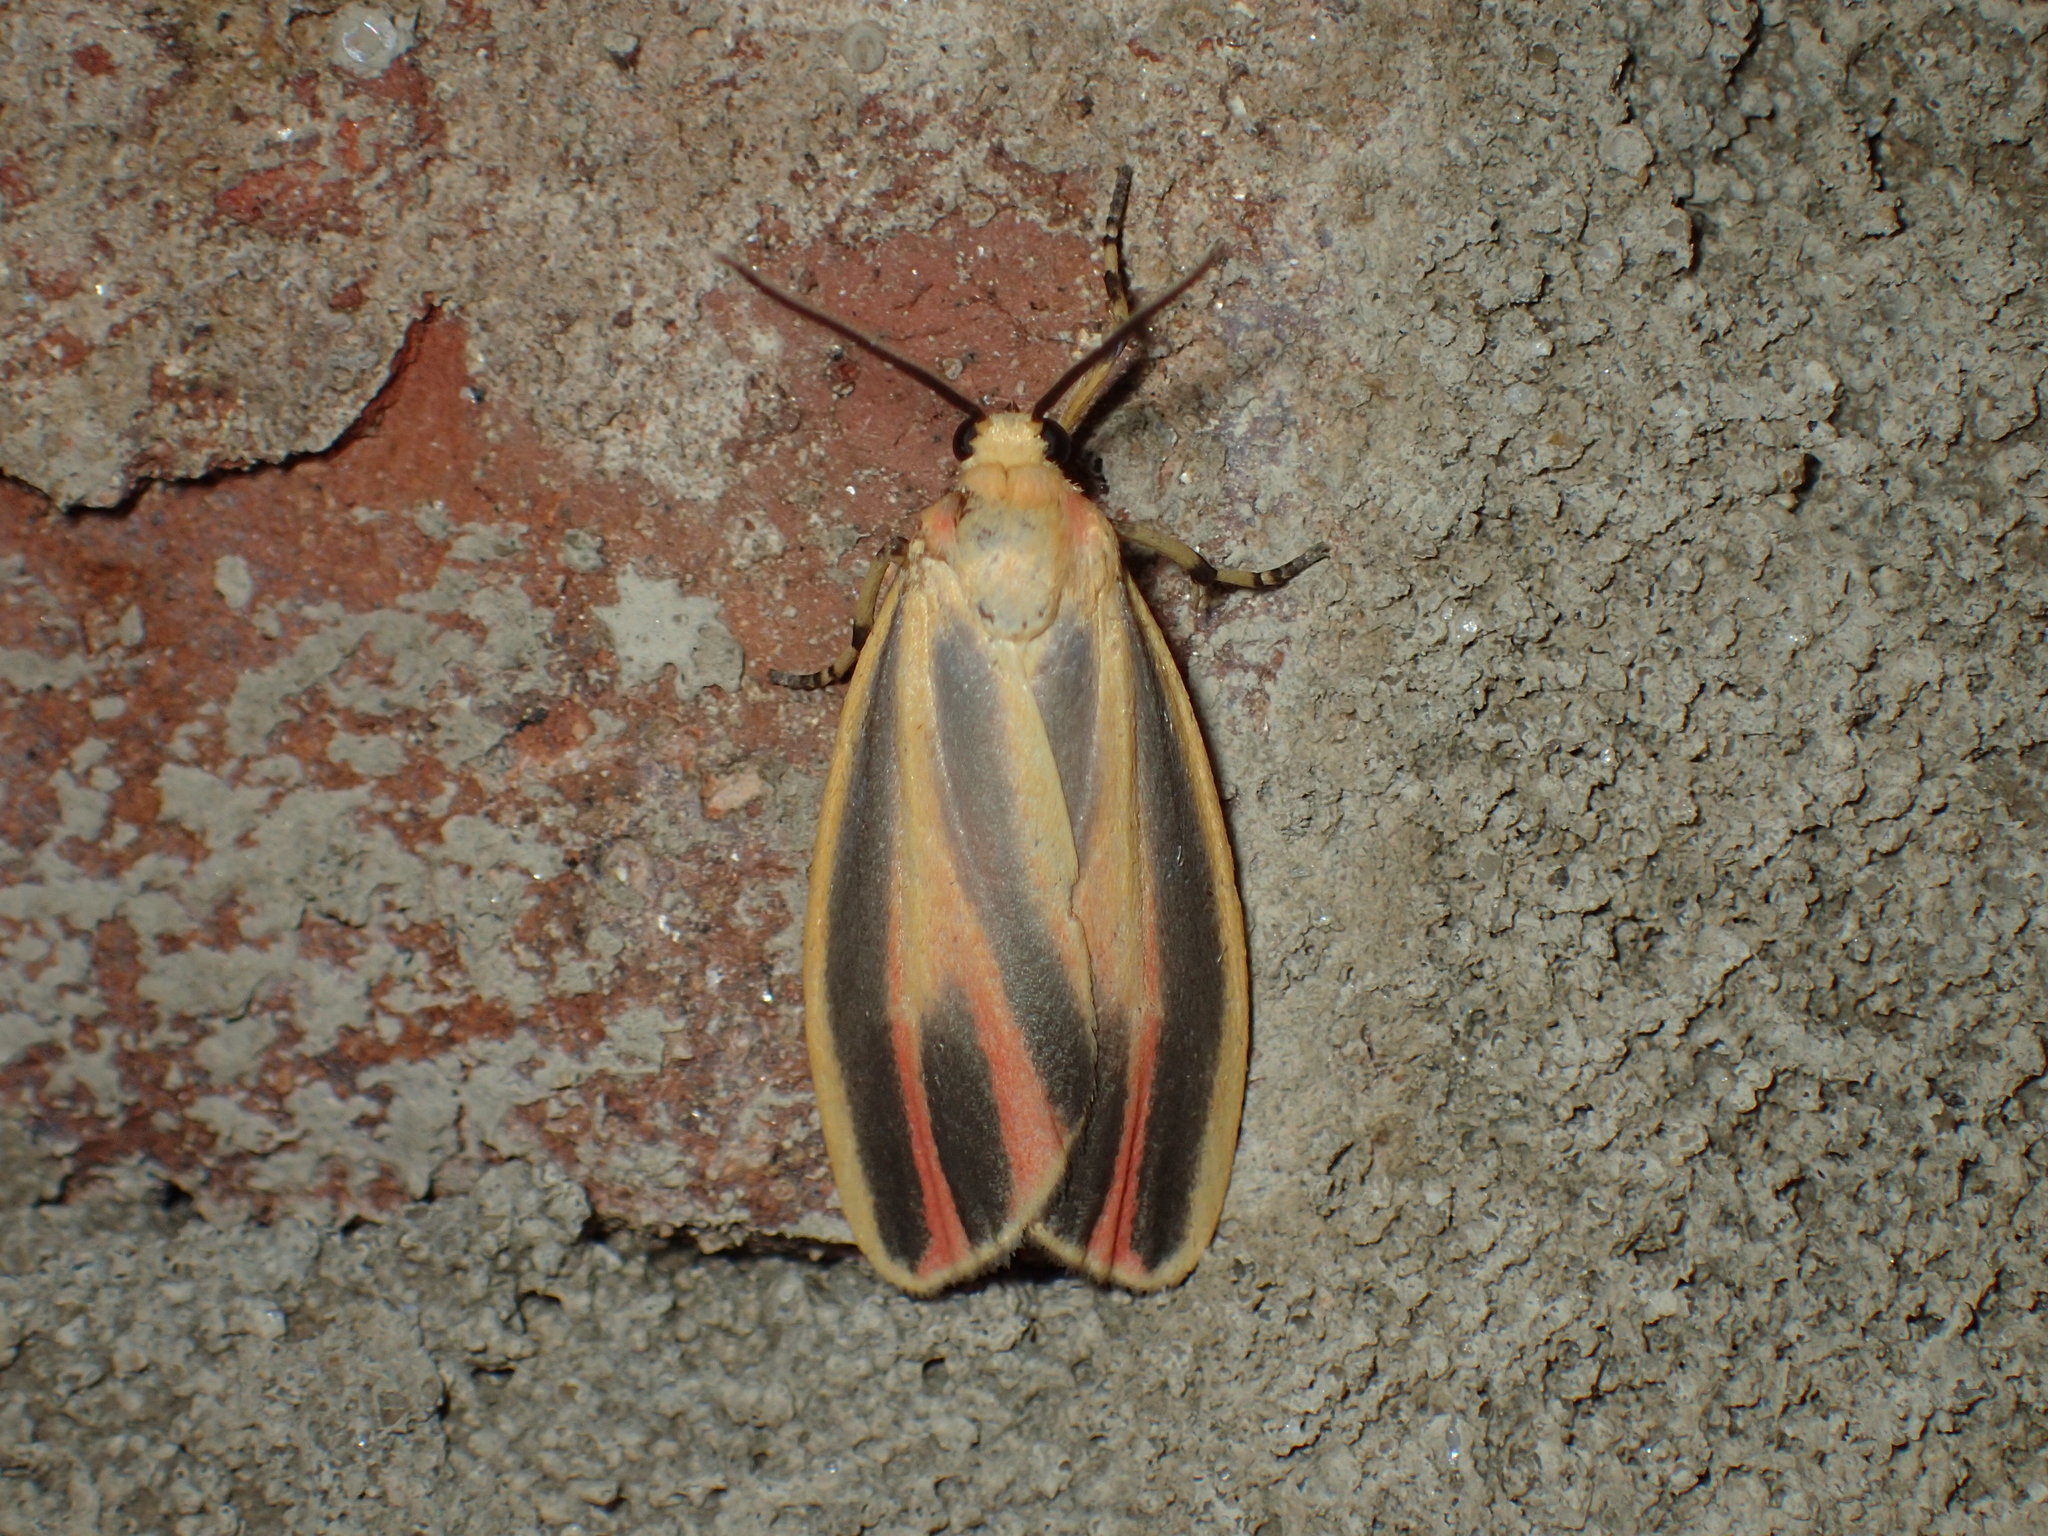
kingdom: Animalia
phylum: Arthropoda
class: Insecta
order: Lepidoptera
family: Erebidae
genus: Hypoprepia
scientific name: Hypoprepia fucosa
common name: Painted lichen moth
